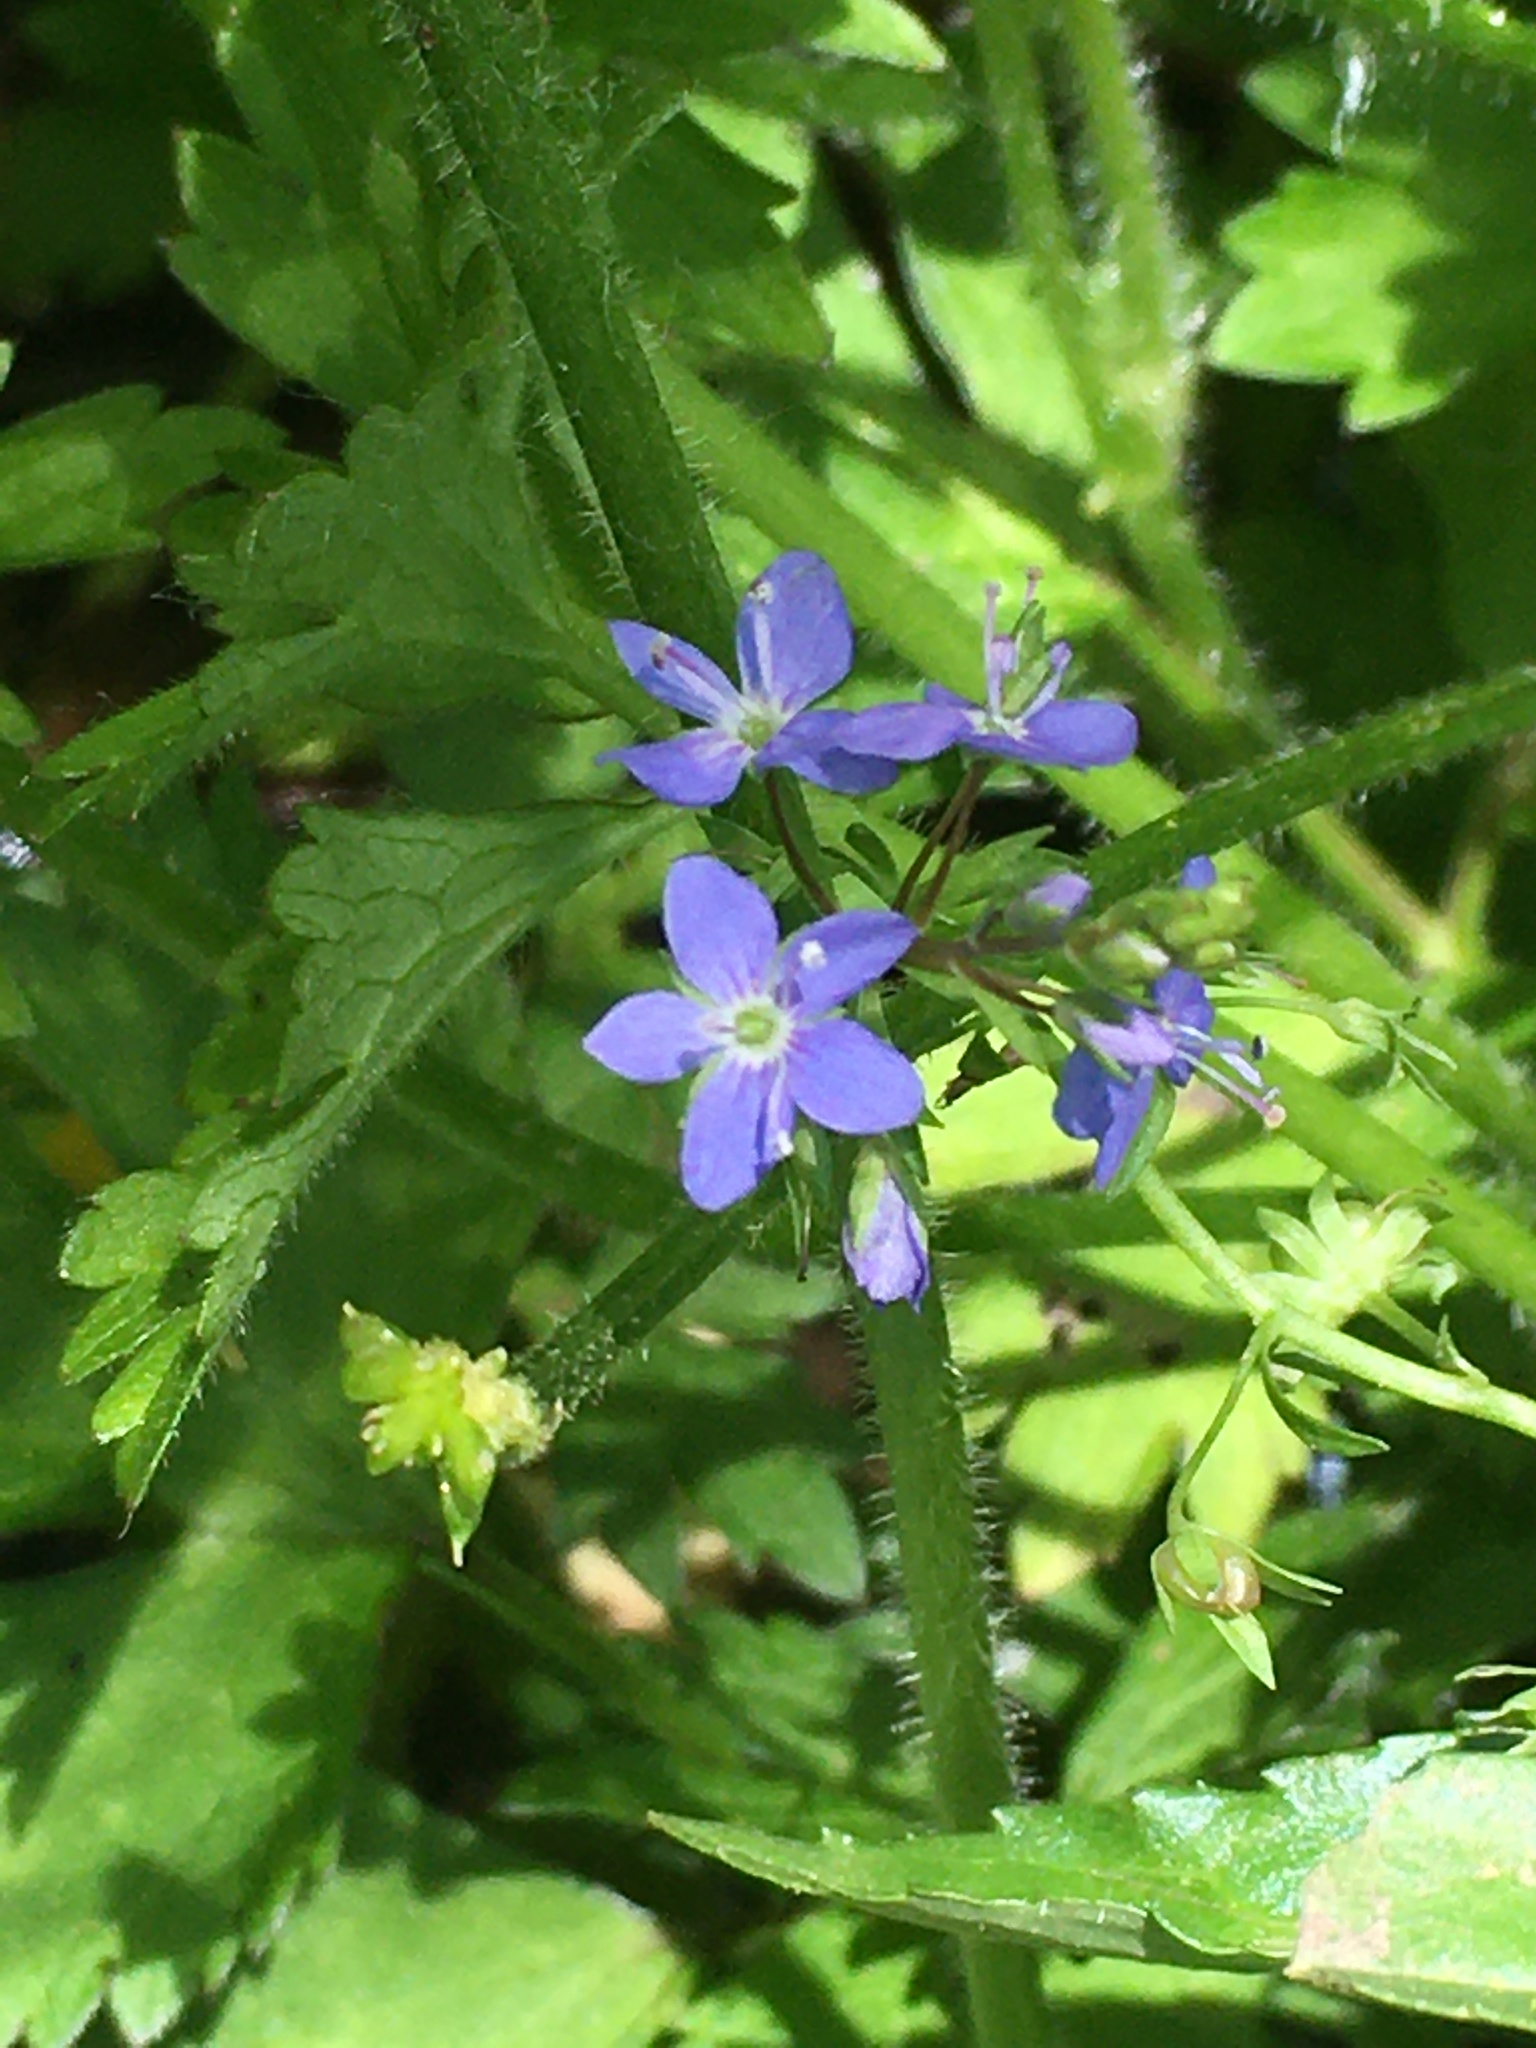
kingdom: Plantae
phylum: Tracheophyta
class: Magnoliopsida
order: Lamiales
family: Plantaginaceae
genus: Veronica
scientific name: Veronica americana
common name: American brooklime
